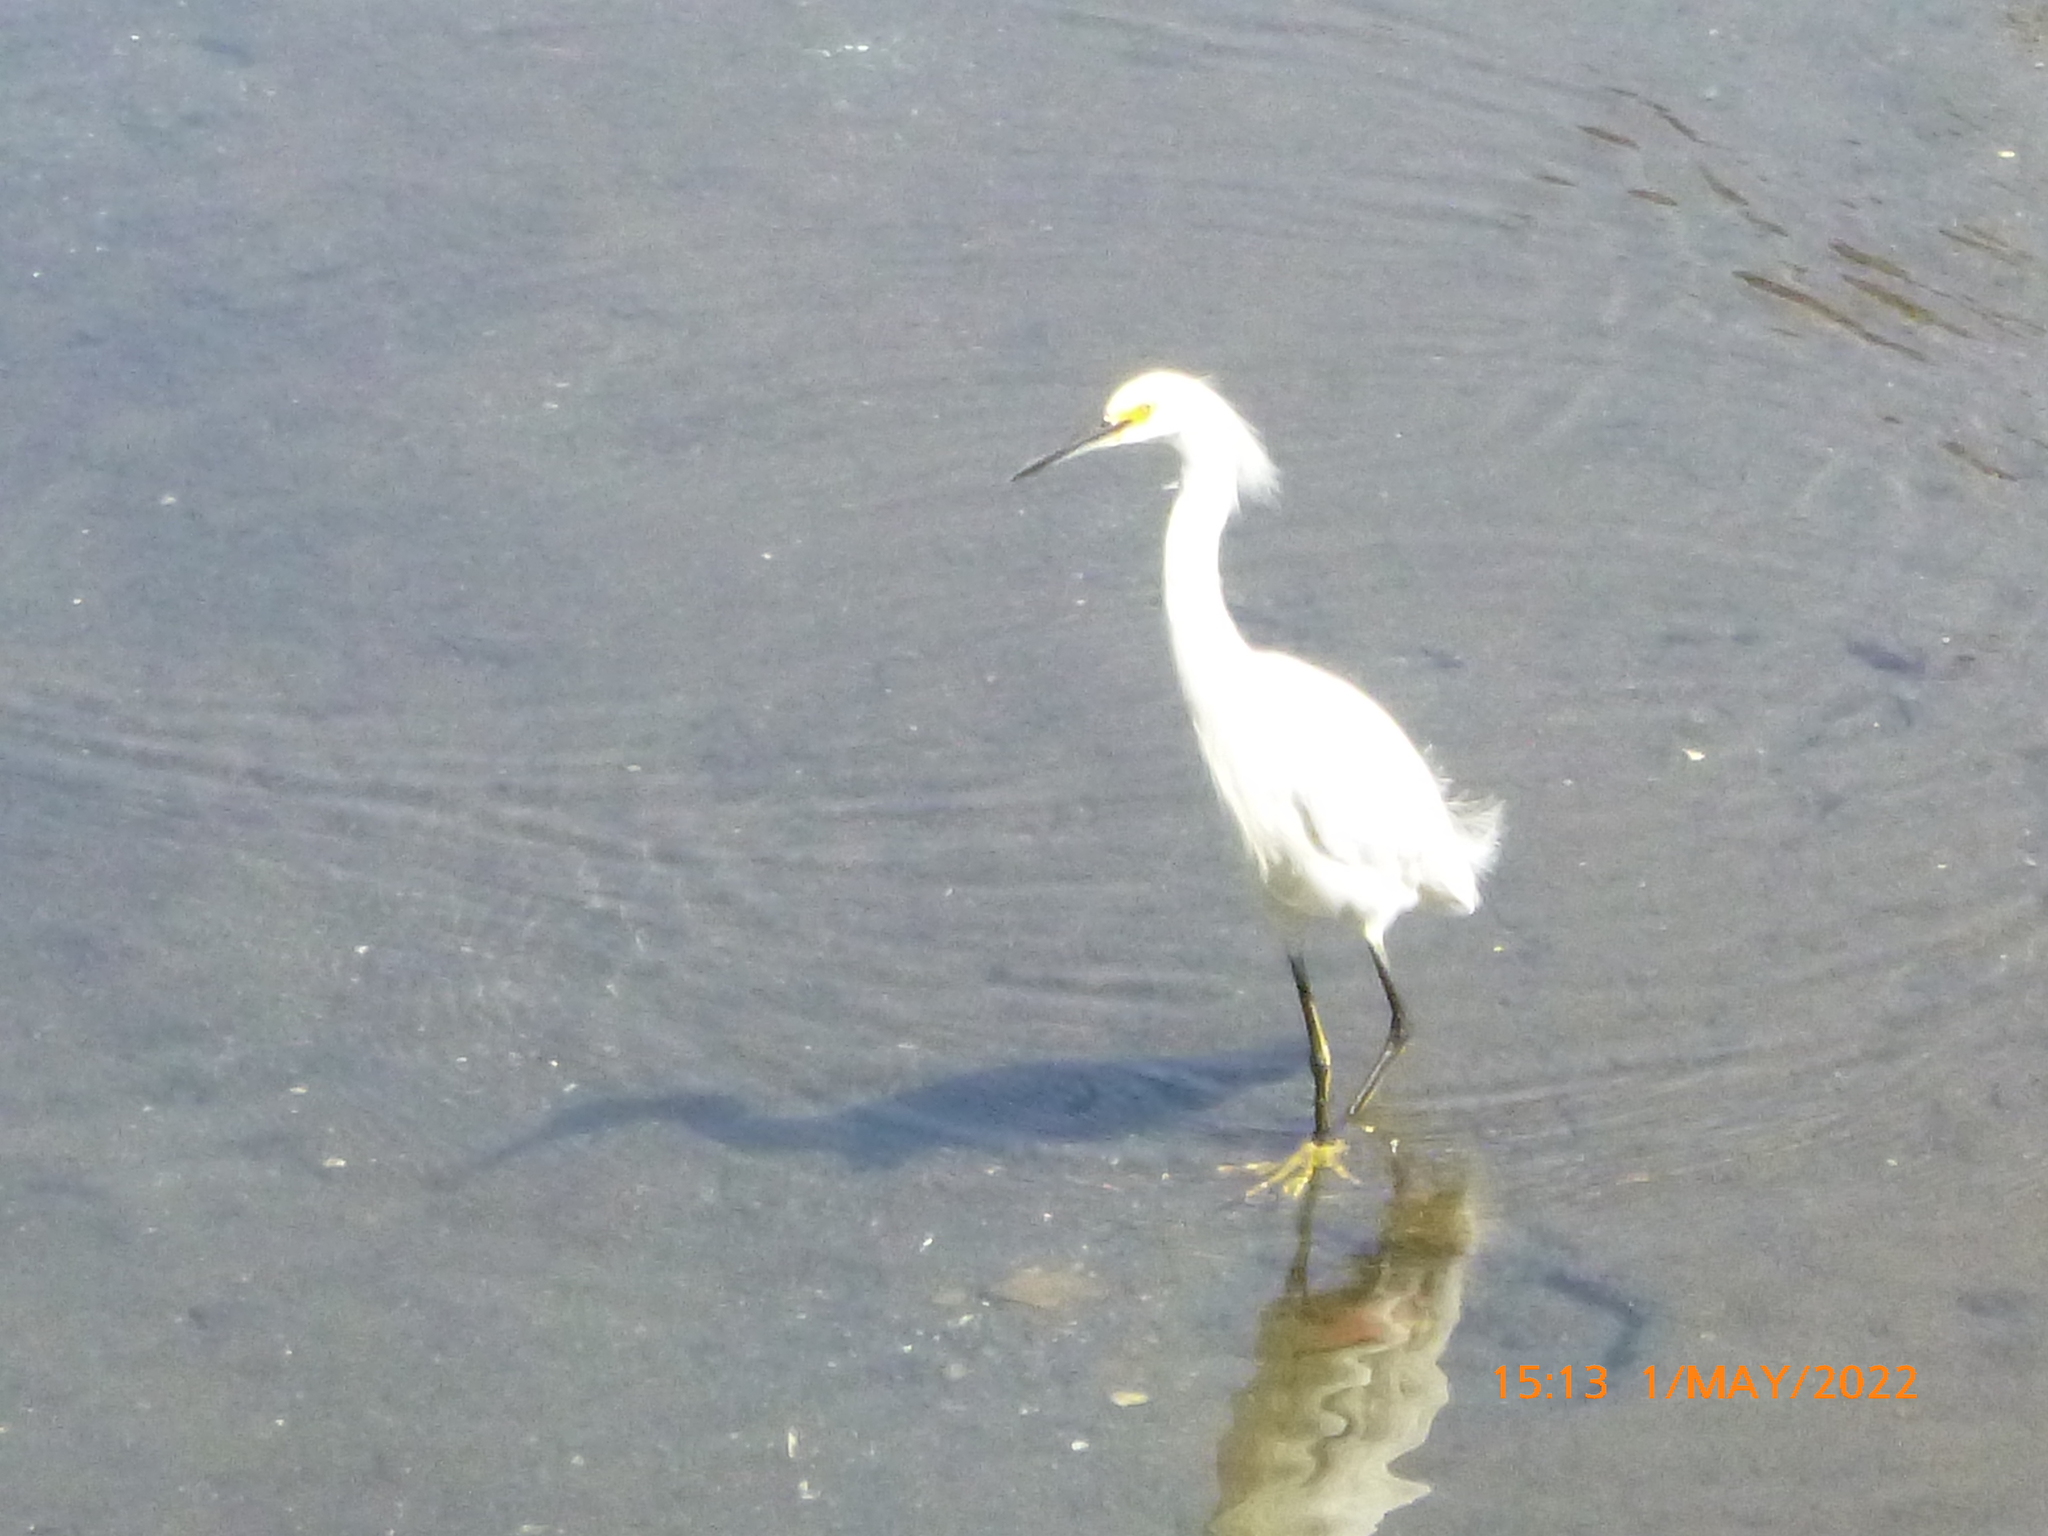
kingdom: Animalia
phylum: Chordata
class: Aves
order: Pelecaniformes
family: Ardeidae
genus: Egretta
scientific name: Egretta thula
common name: Snowy egret
